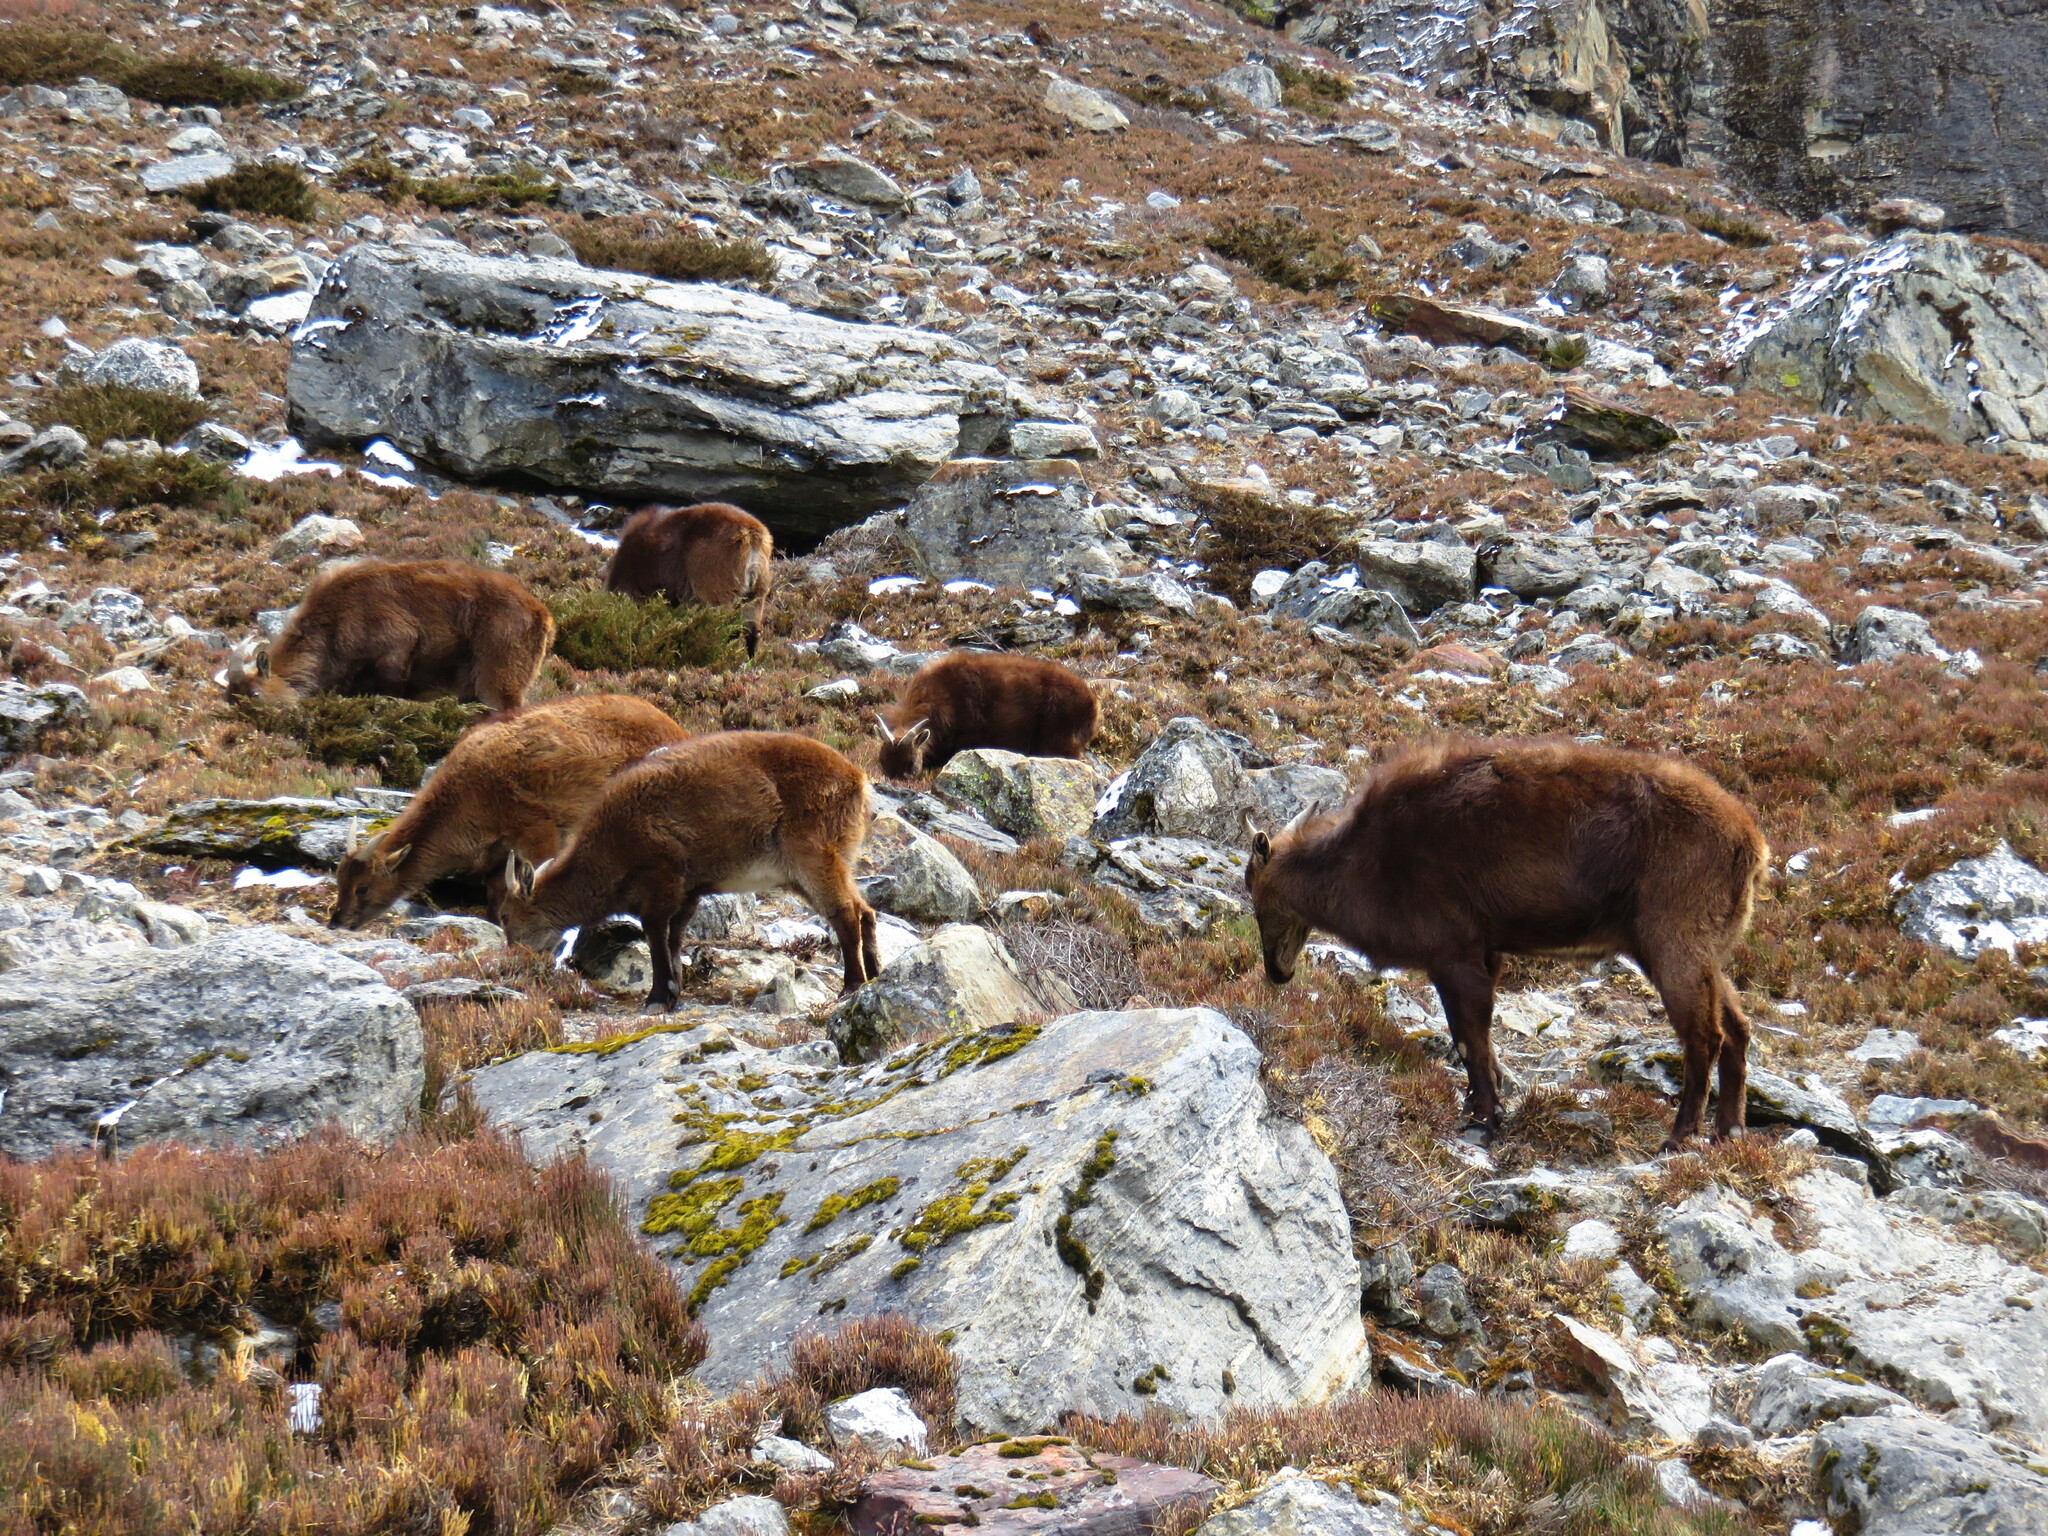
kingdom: Animalia
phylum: Chordata
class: Mammalia
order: Artiodactyla
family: Bovidae
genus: Hemitragus
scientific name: Hemitragus jemlahicus
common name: Himalayan tahr
